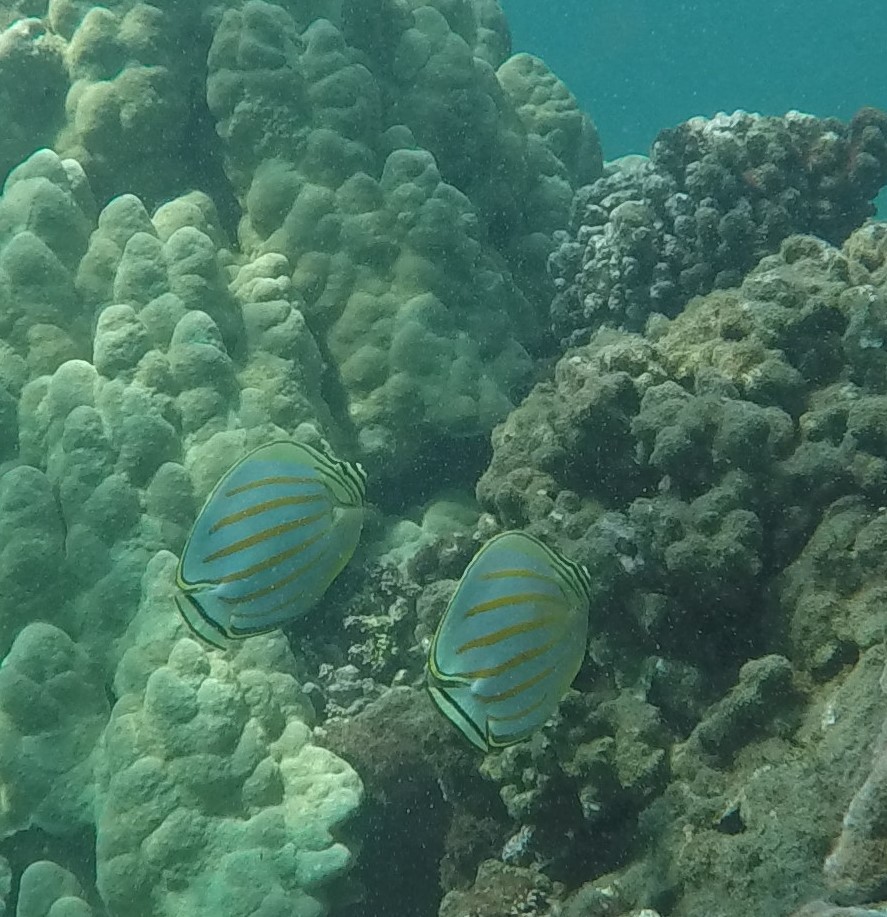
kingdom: Animalia
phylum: Chordata
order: Perciformes
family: Chaetodontidae
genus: Chaetodon
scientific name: Chaetodon ornatissimus
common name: Ornate butterflyfish
